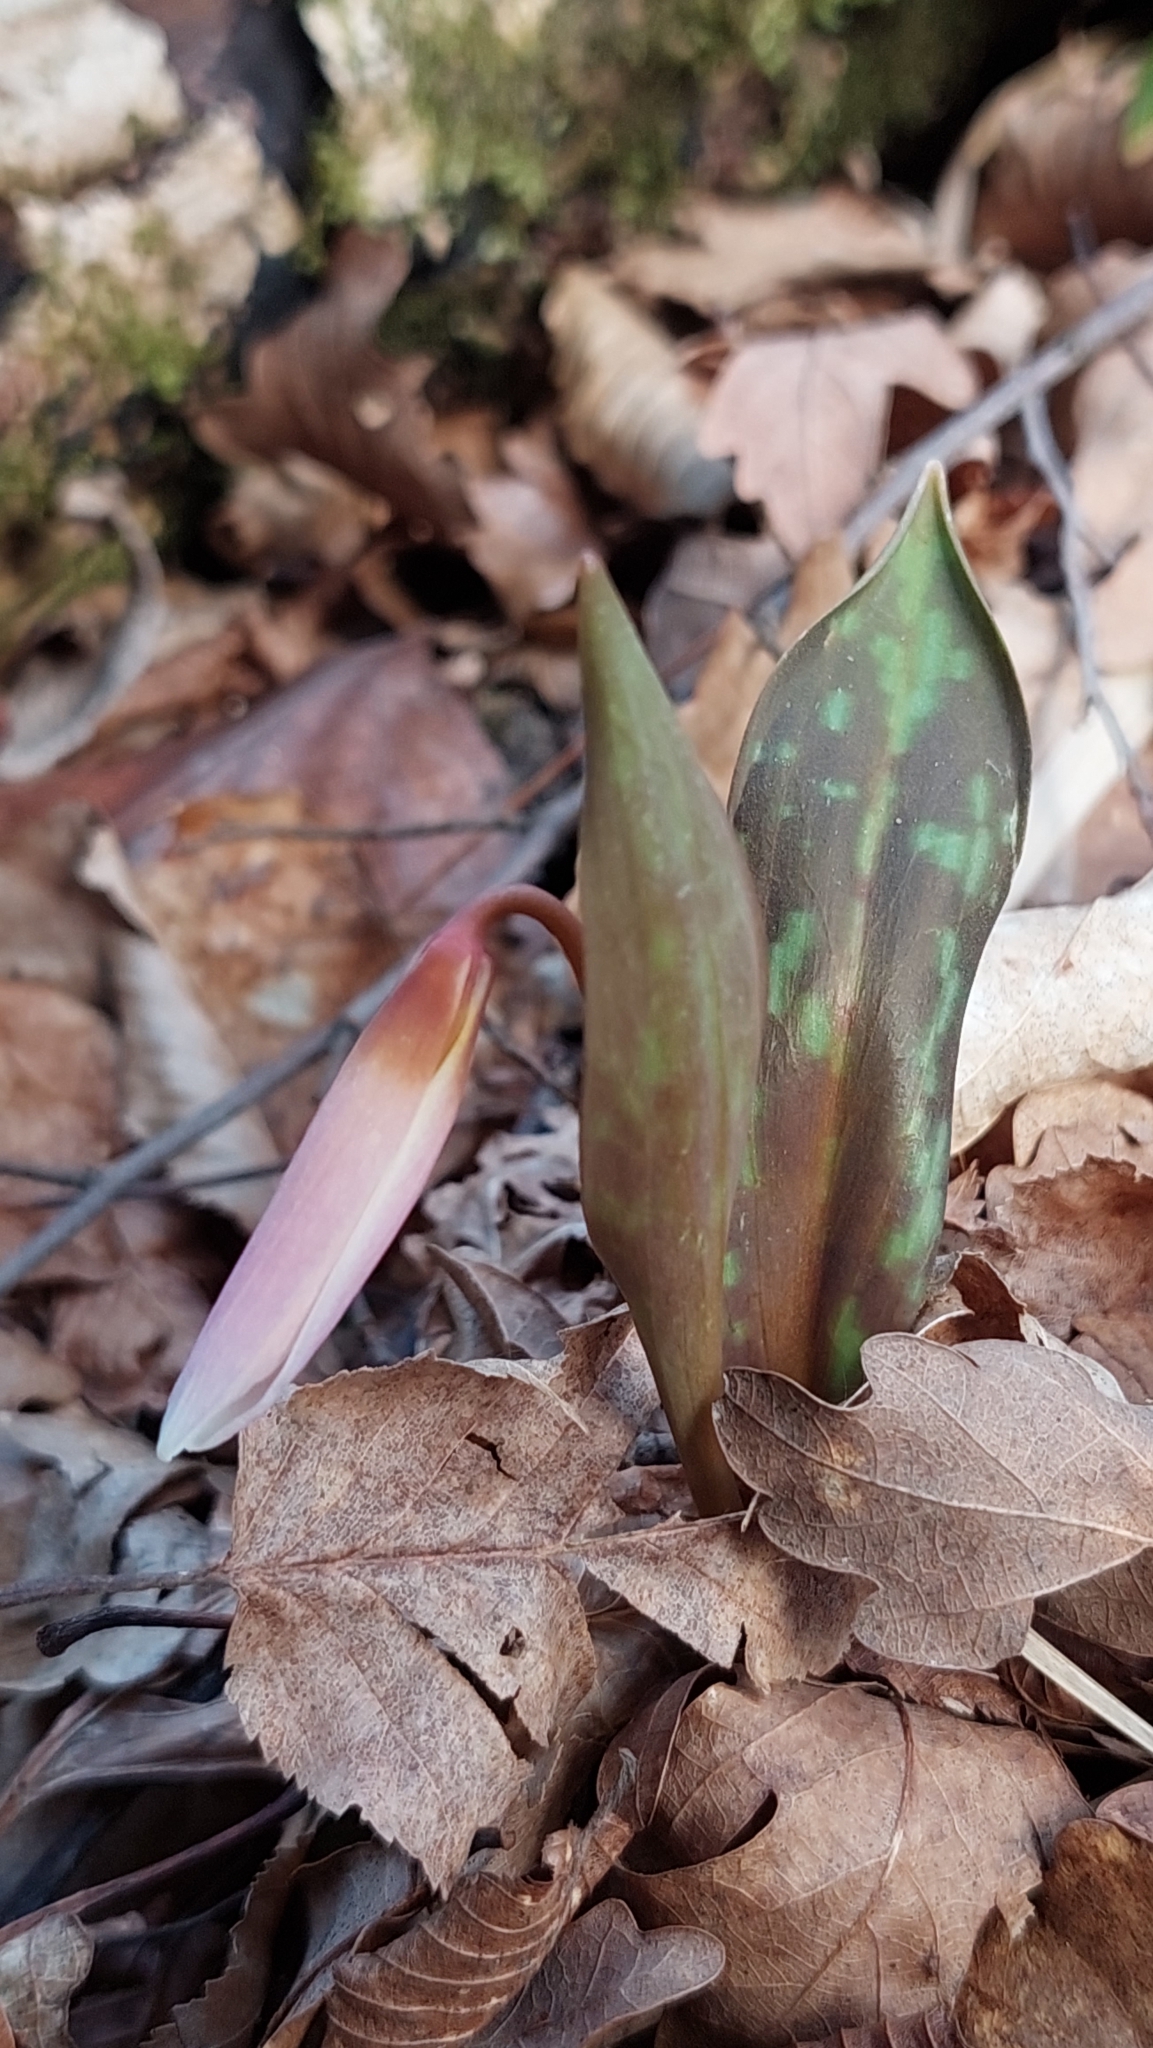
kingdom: Plantae
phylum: Tracheophyta
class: Liliopsida
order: Liliales
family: Liliaceae
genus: Erythronium
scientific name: Erythronium caucasicum
